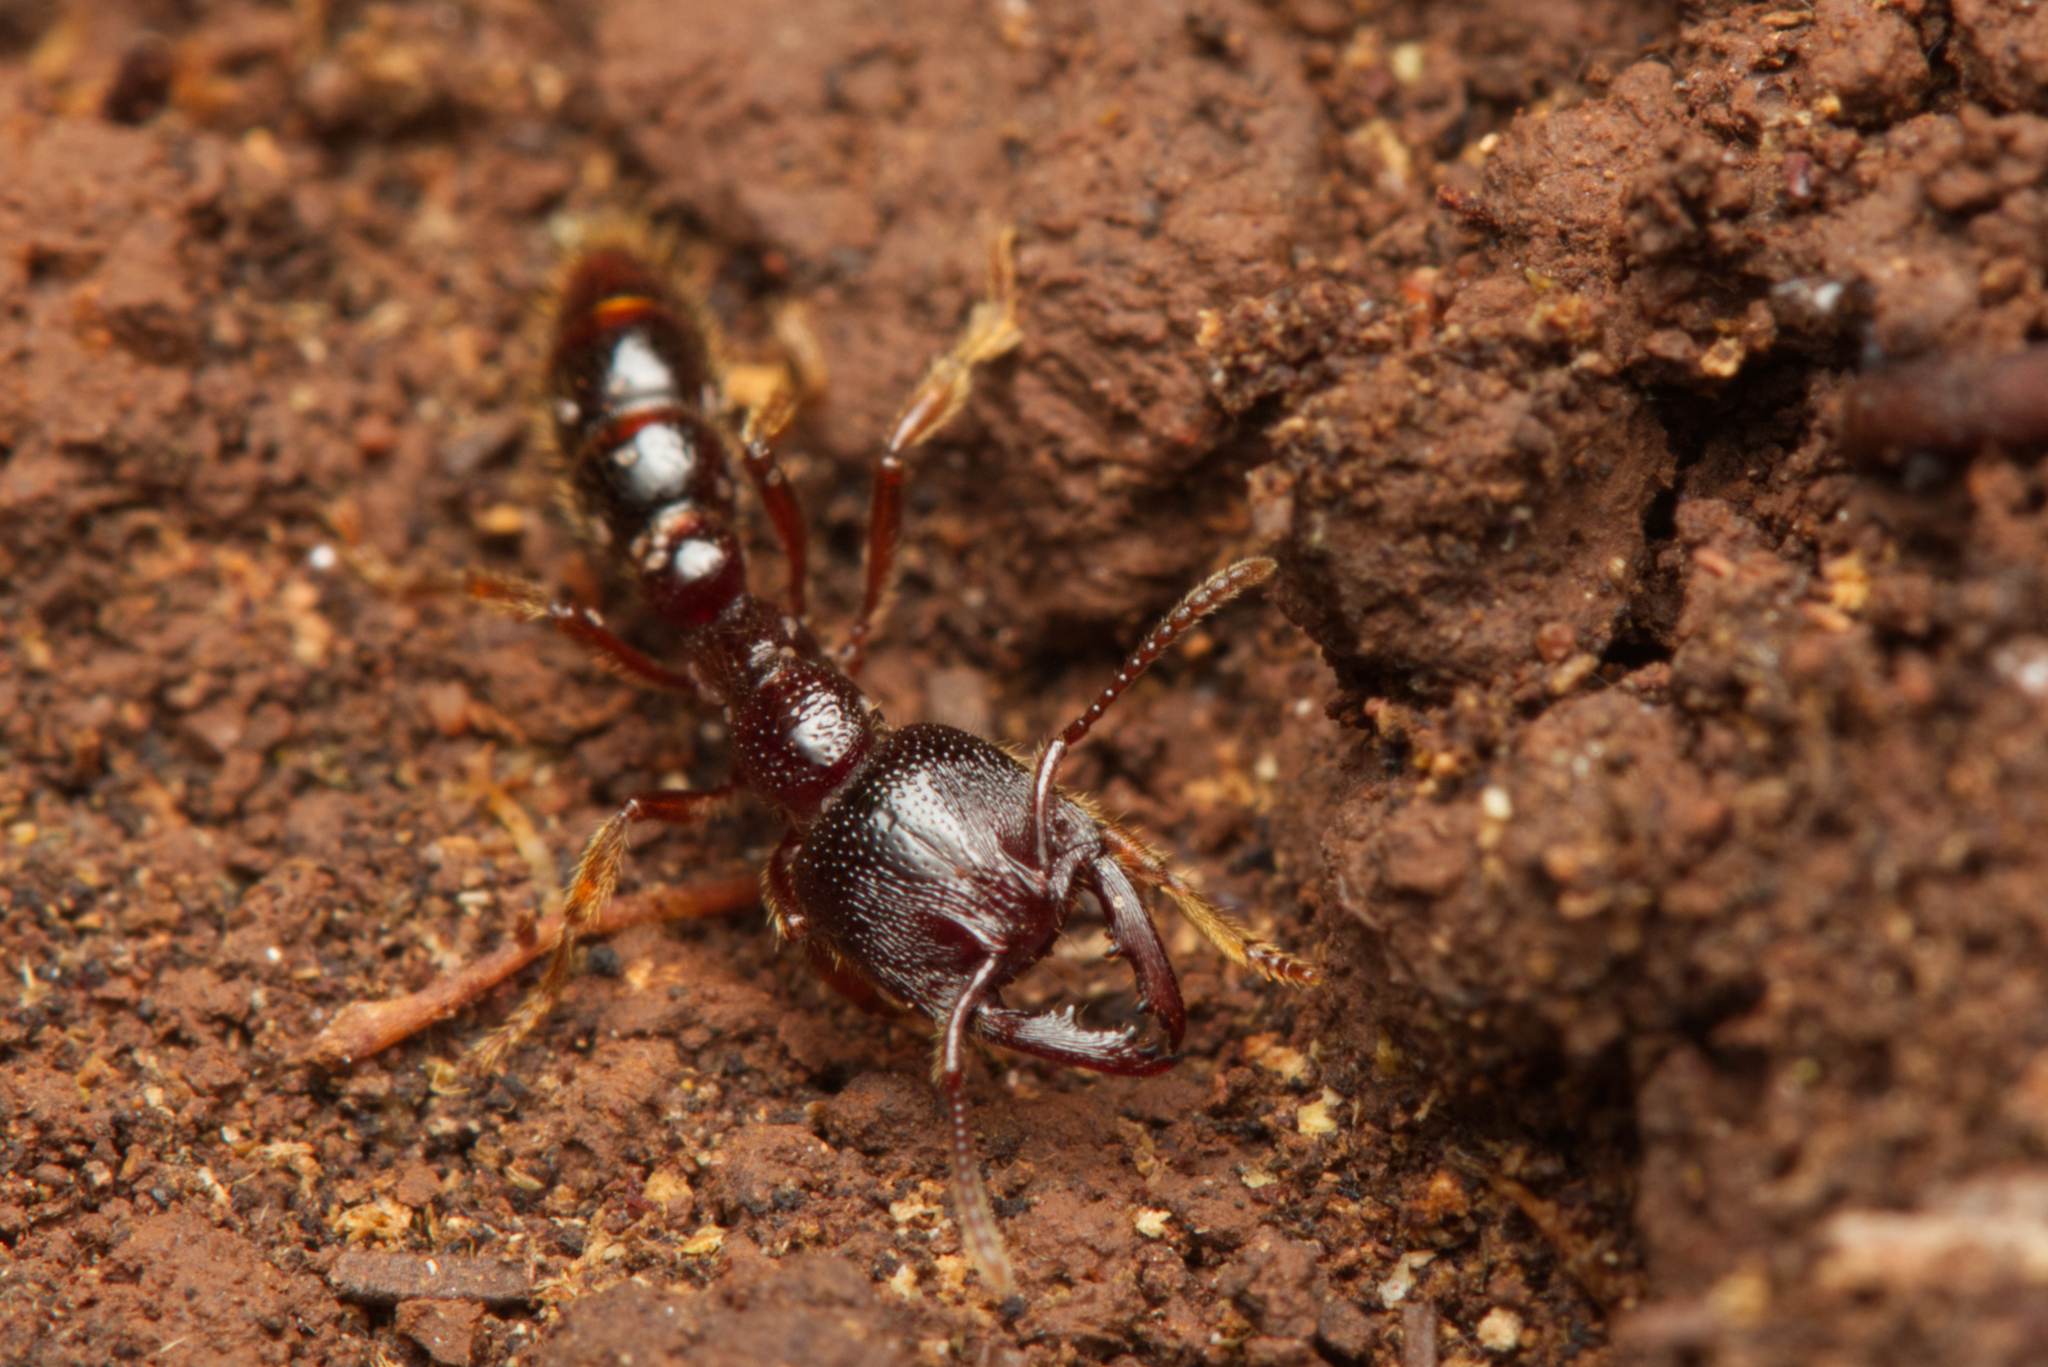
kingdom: Animalia
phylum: Arthropoda
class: Insecta
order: Hymenoptera
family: Formicidae
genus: Amblyopone
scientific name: Amblyopone australis
